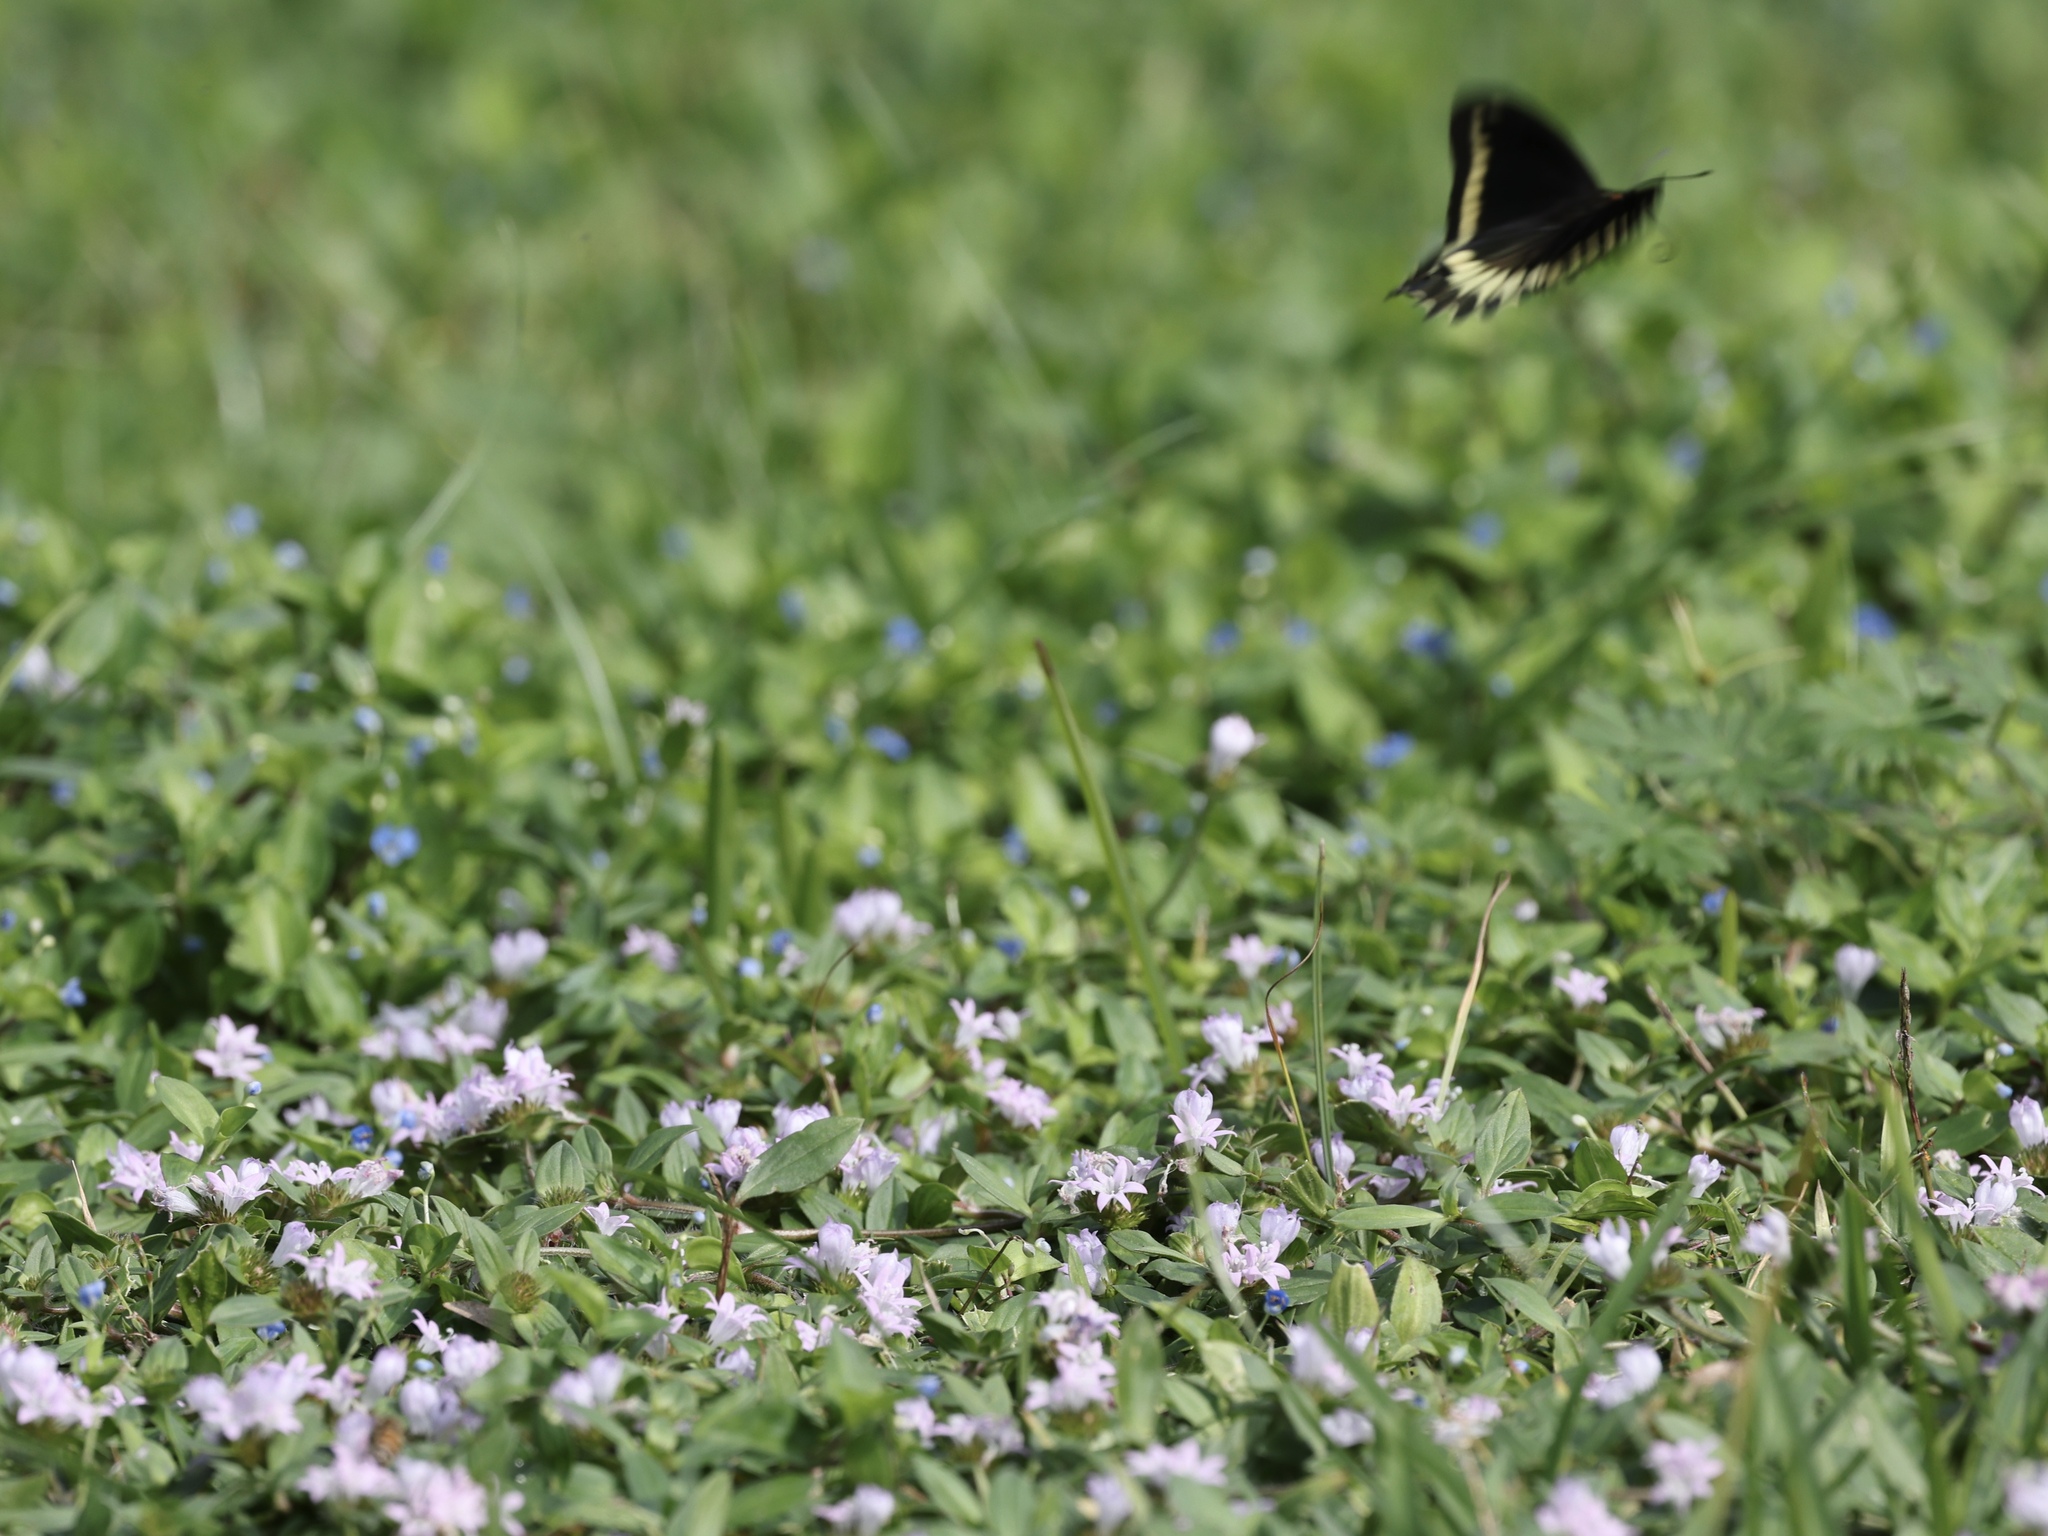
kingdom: Animalia
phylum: Arthropoda
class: Insecta
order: Lepidoptera
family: Papilionidae
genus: Battus
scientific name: Battus polydamas
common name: Polydamas swallowtail
